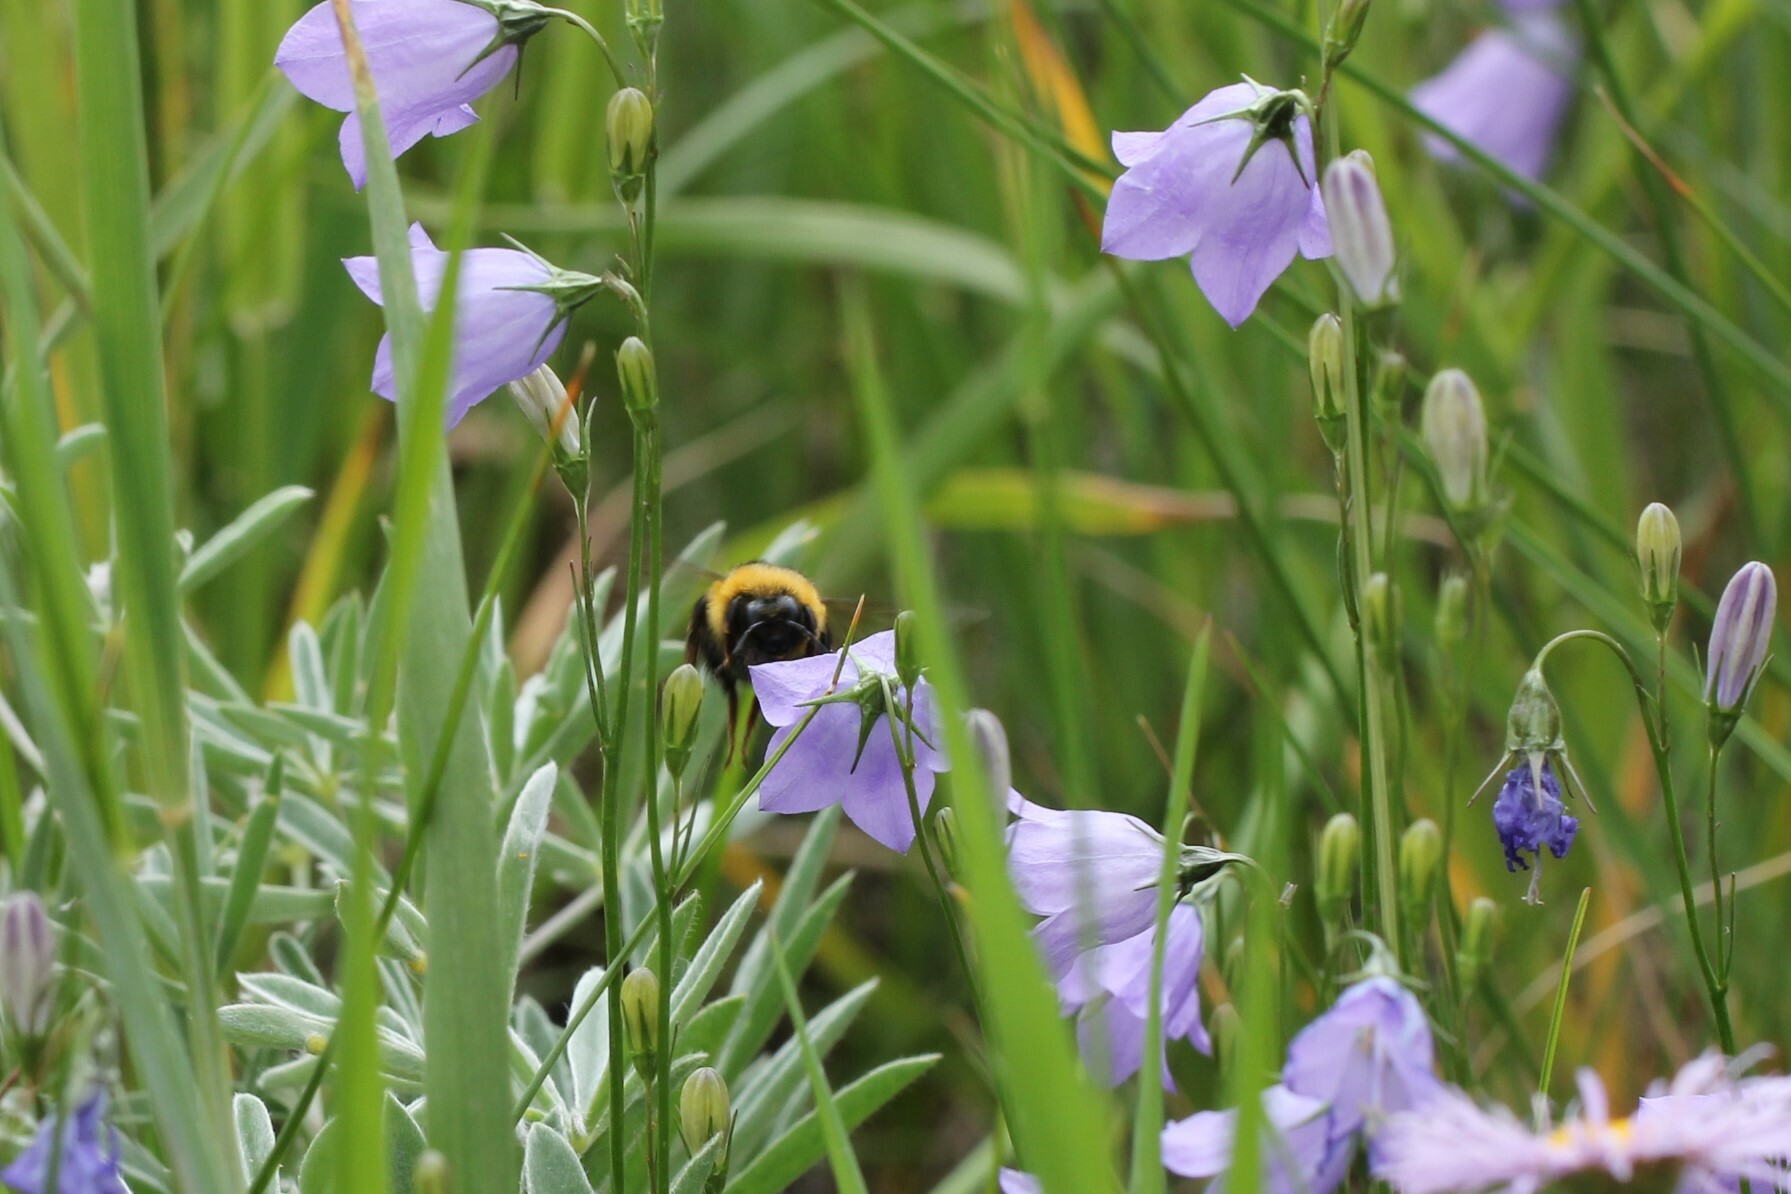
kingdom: Animalia
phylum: Arthropoda
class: Insecta
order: Hymenoptera
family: Apidae
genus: Bombus
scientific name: Bombus
